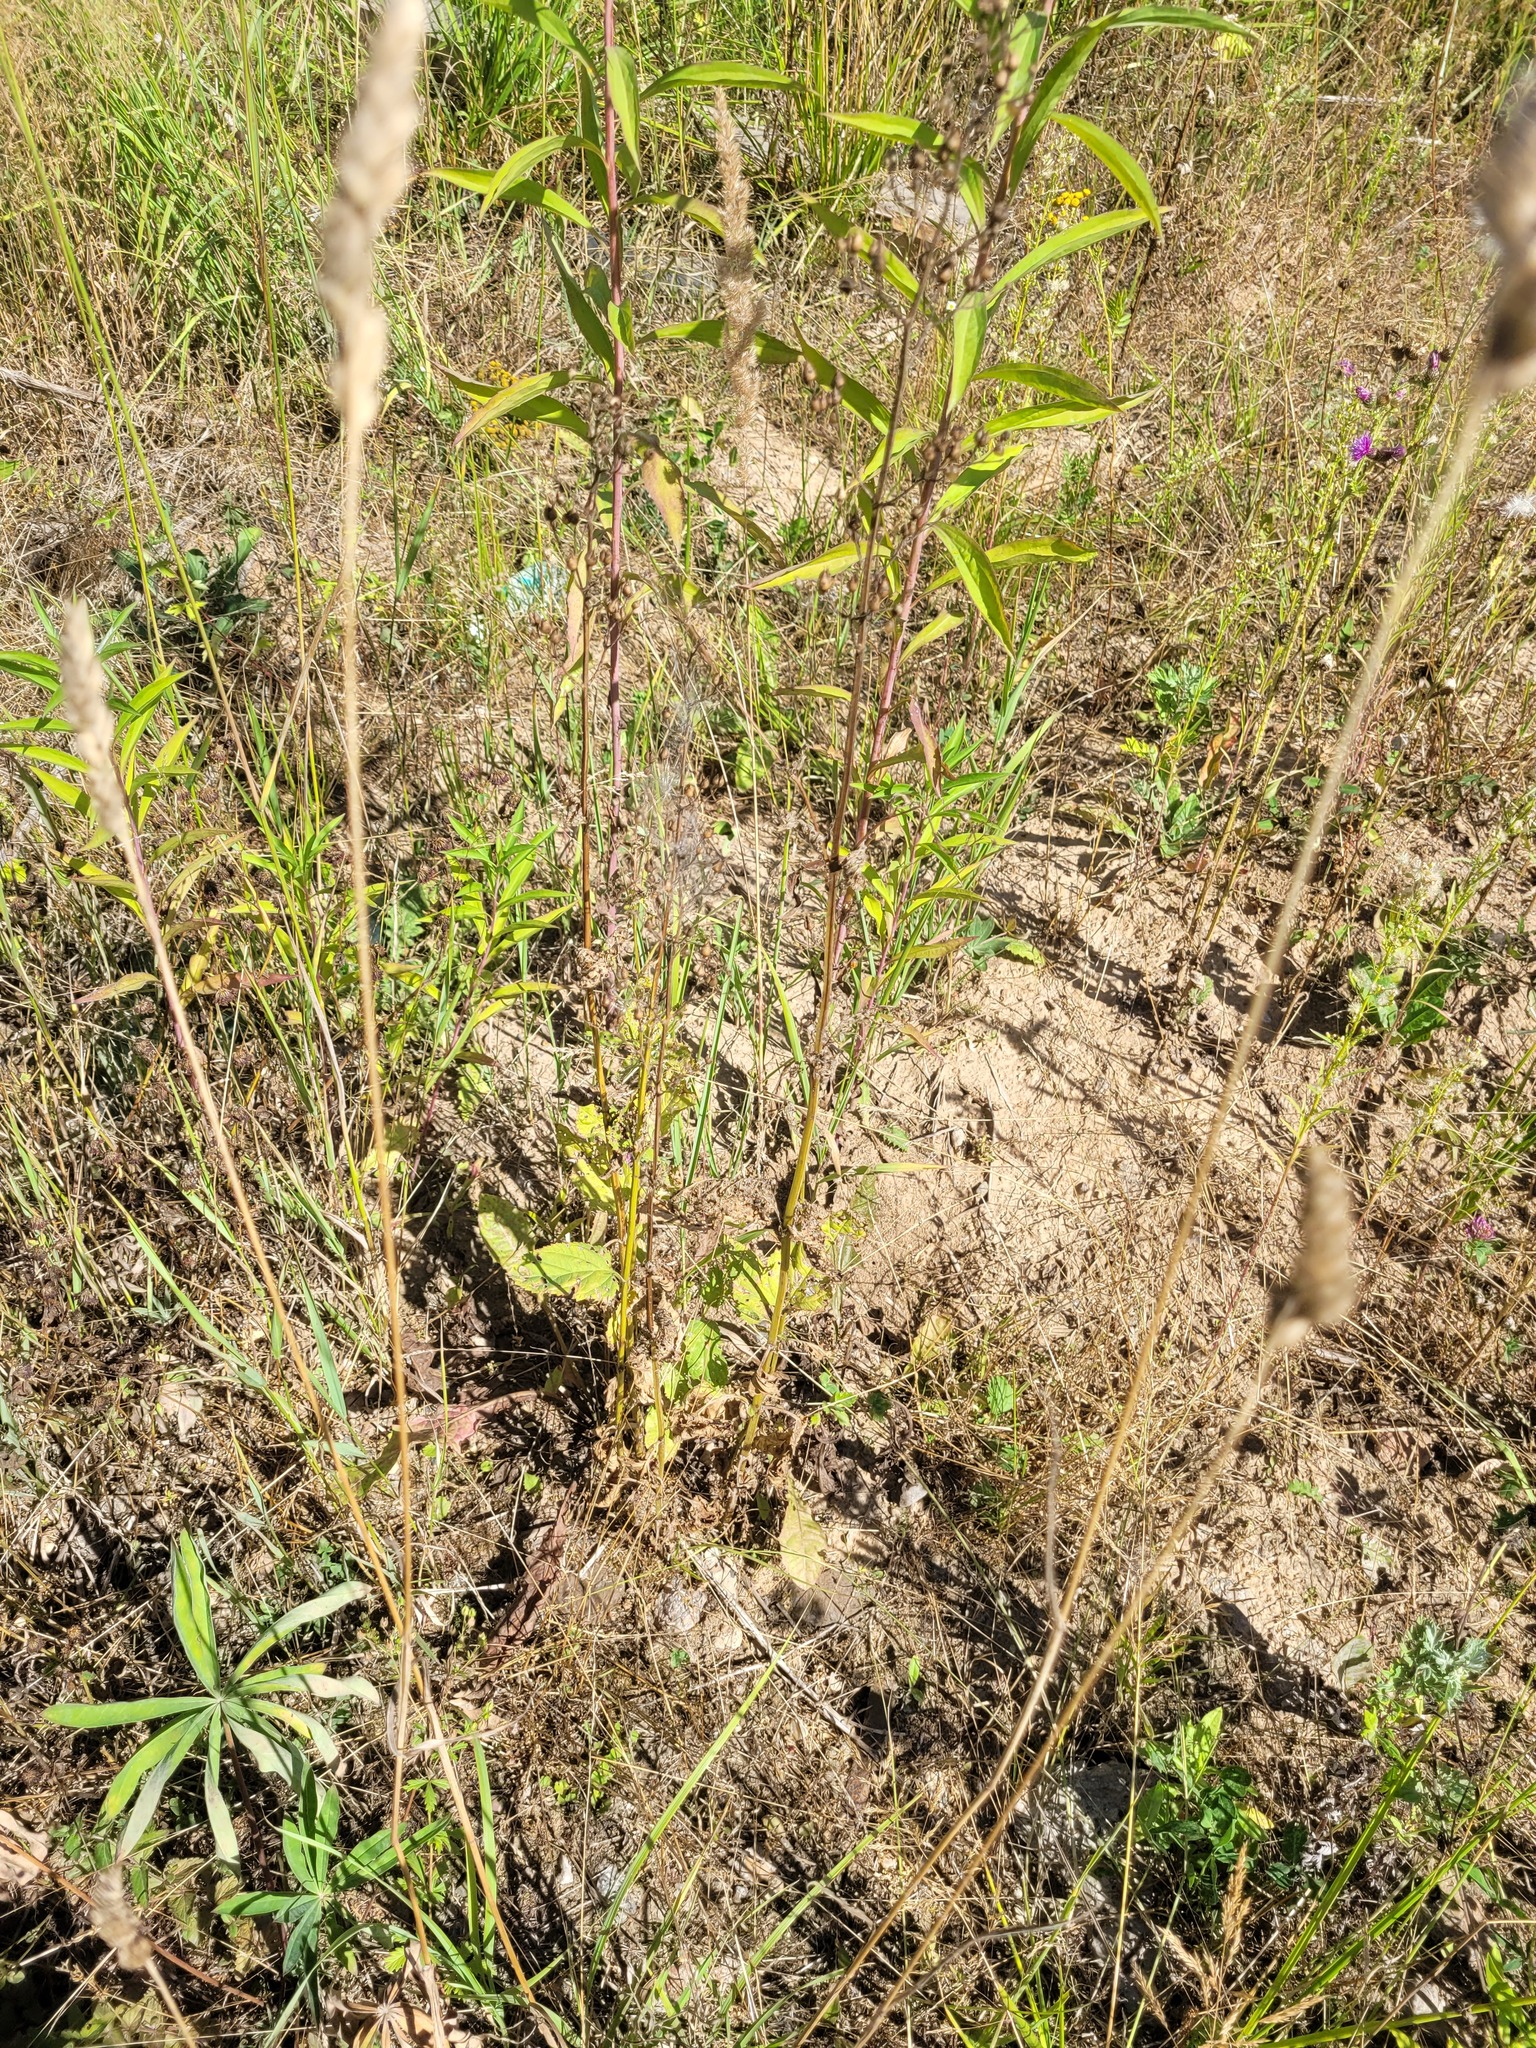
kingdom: Plantae
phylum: Tracheophyta
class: Magnoliopsida
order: Lamiales
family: Scrophulariaceae
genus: Scrophularia
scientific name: Scrophularia nodosa
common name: Common figwort
